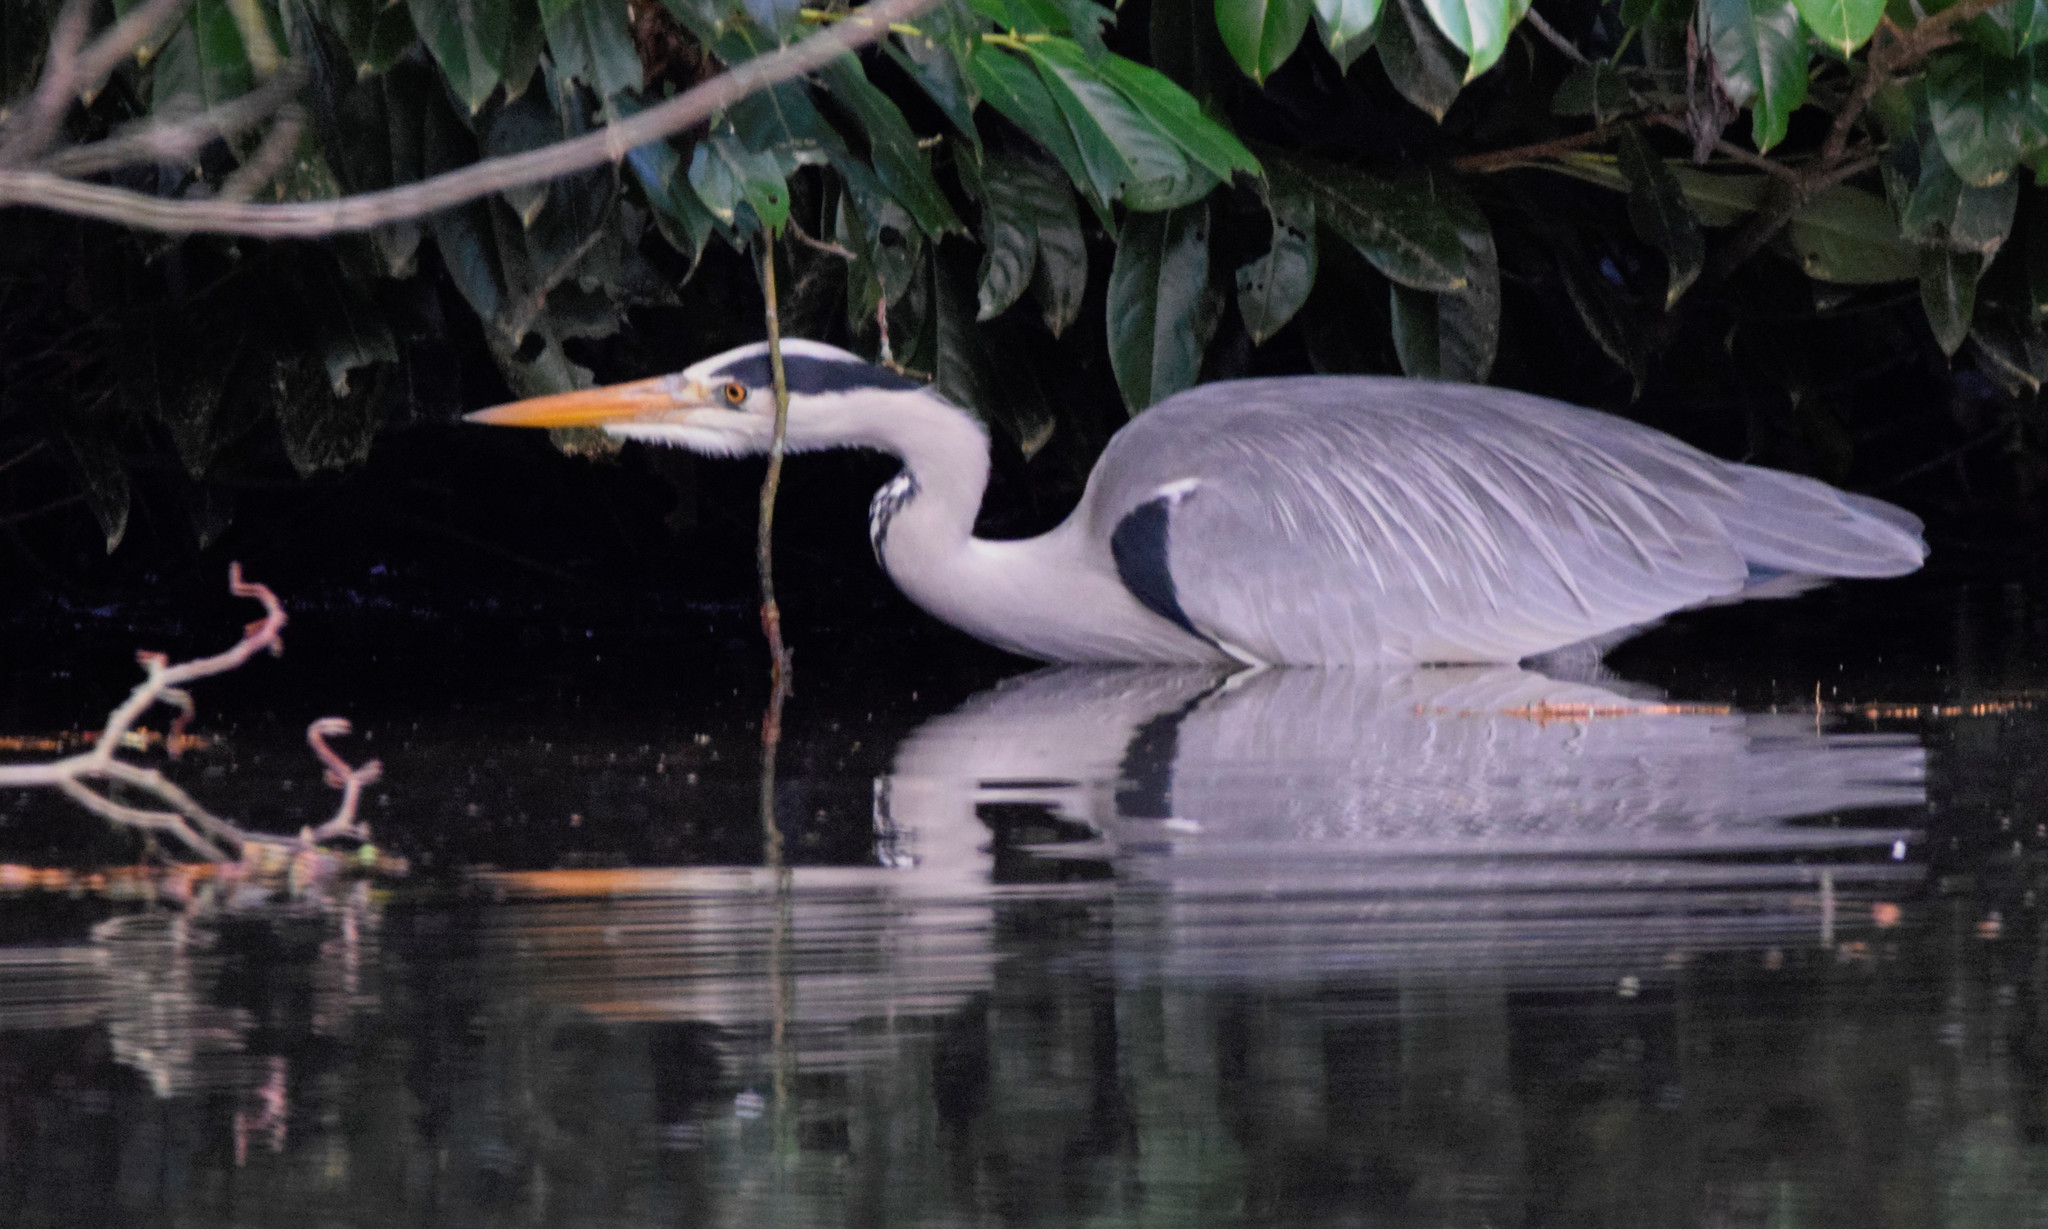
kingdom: Animalia
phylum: Chordata
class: Aves
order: Pelecaniformes
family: Ardeidae
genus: Ardea
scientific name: Ardea cinerea
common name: Grey heron
